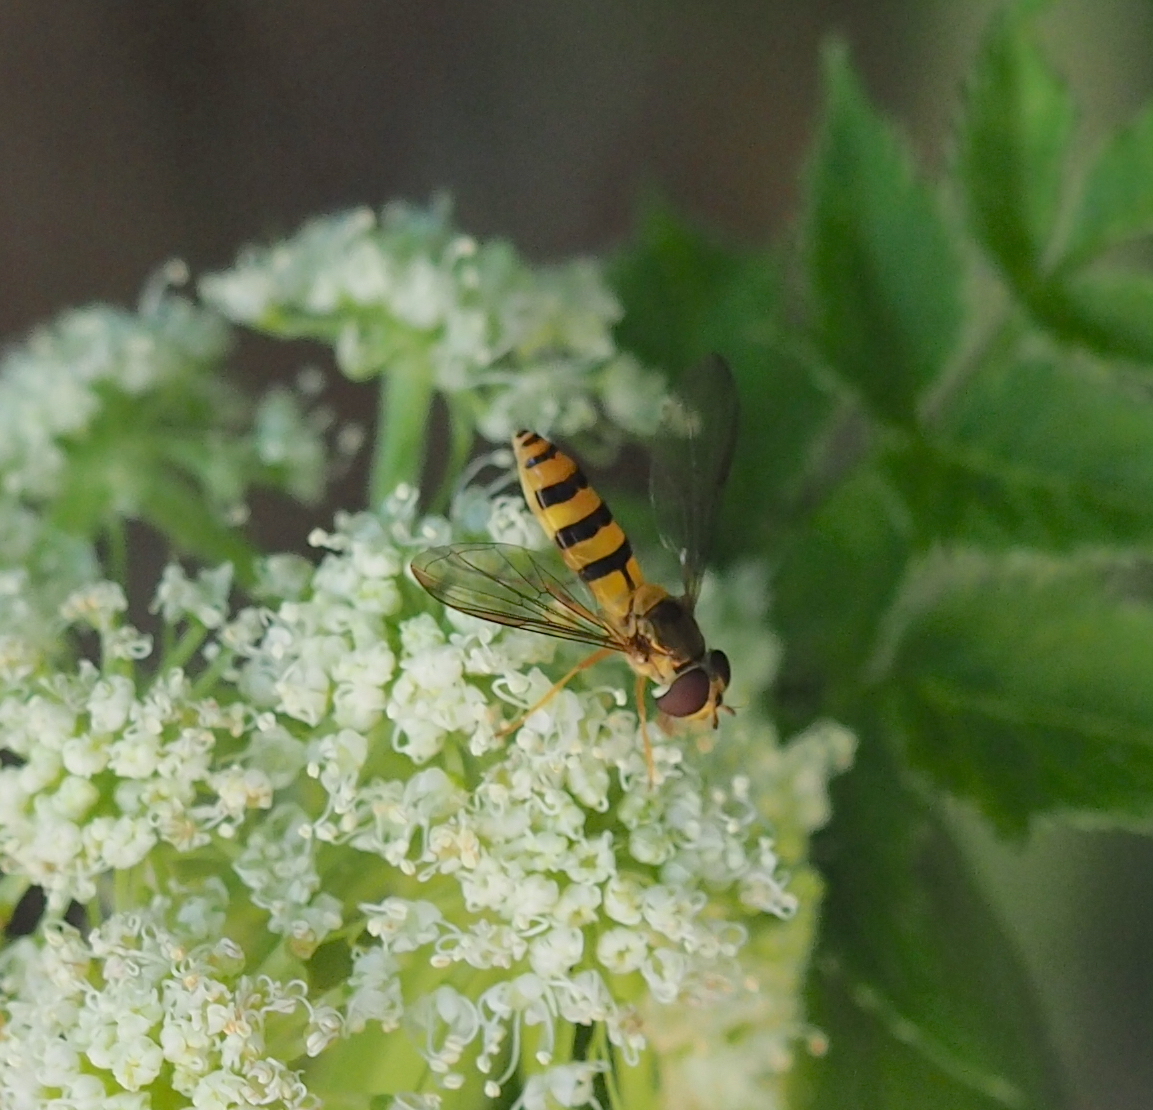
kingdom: Animalia
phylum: Arthropoda
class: Insecta
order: Diptera
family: Syrphidae
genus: Meliscaeva
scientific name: Meliscaeva cinctella
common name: American thintail fly
